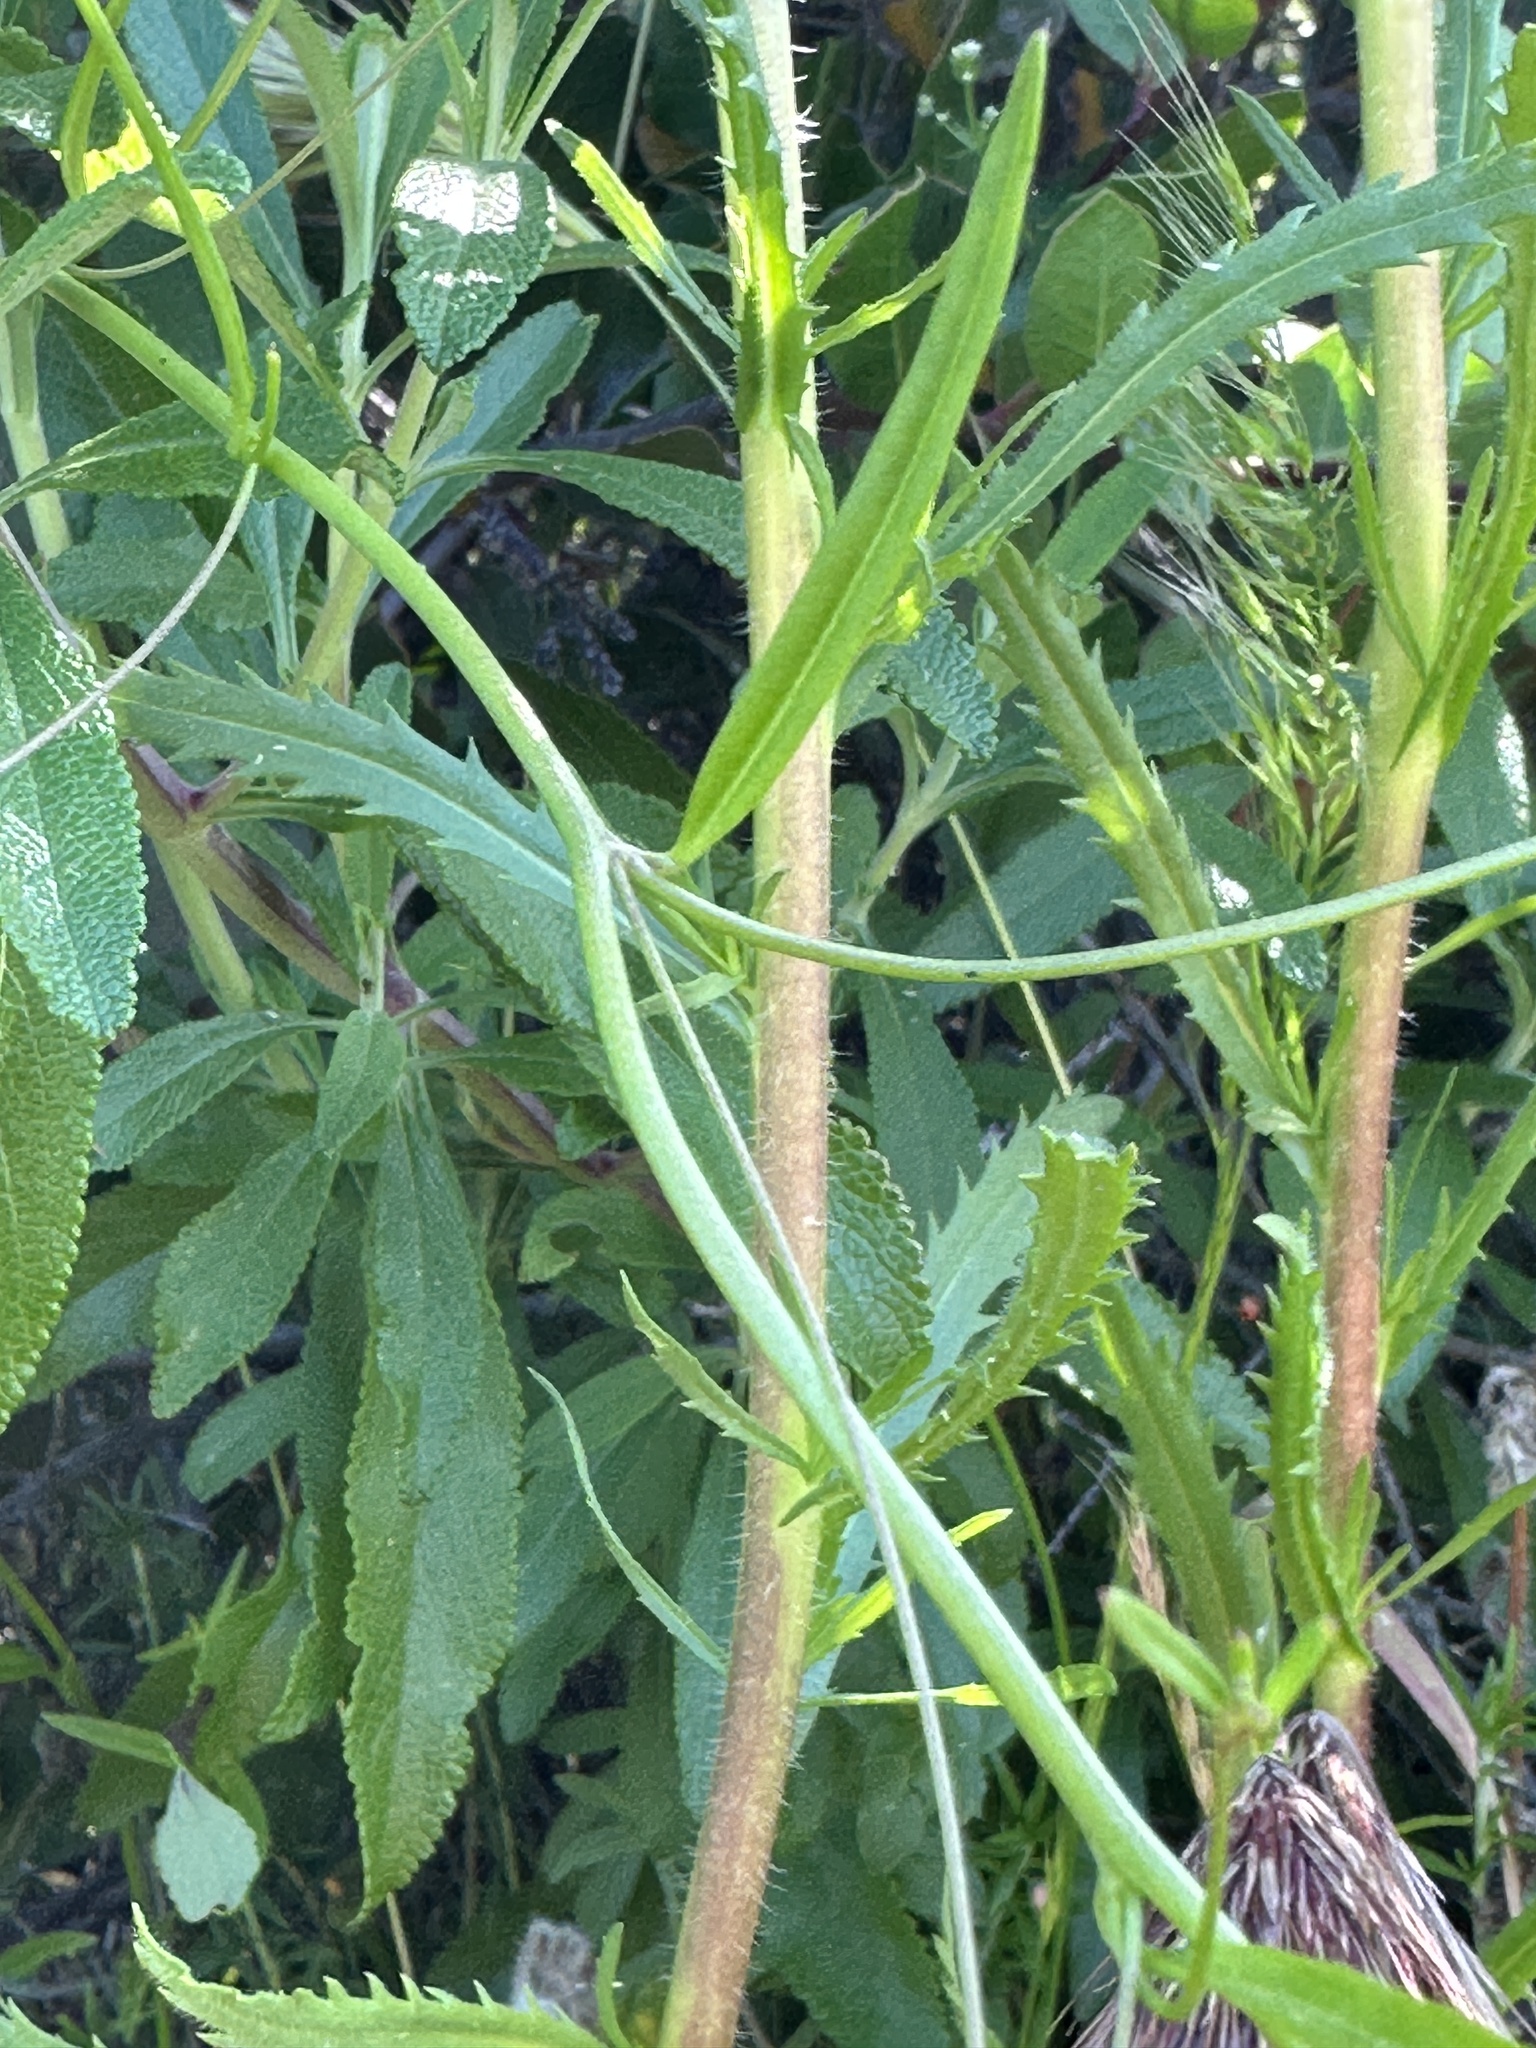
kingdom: Plantae
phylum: Tracheophyta
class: Magnoliopsida
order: Lamiales
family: Plantaginaceae
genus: Neogaerrhinum
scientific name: Neogaerrhinum strictum
